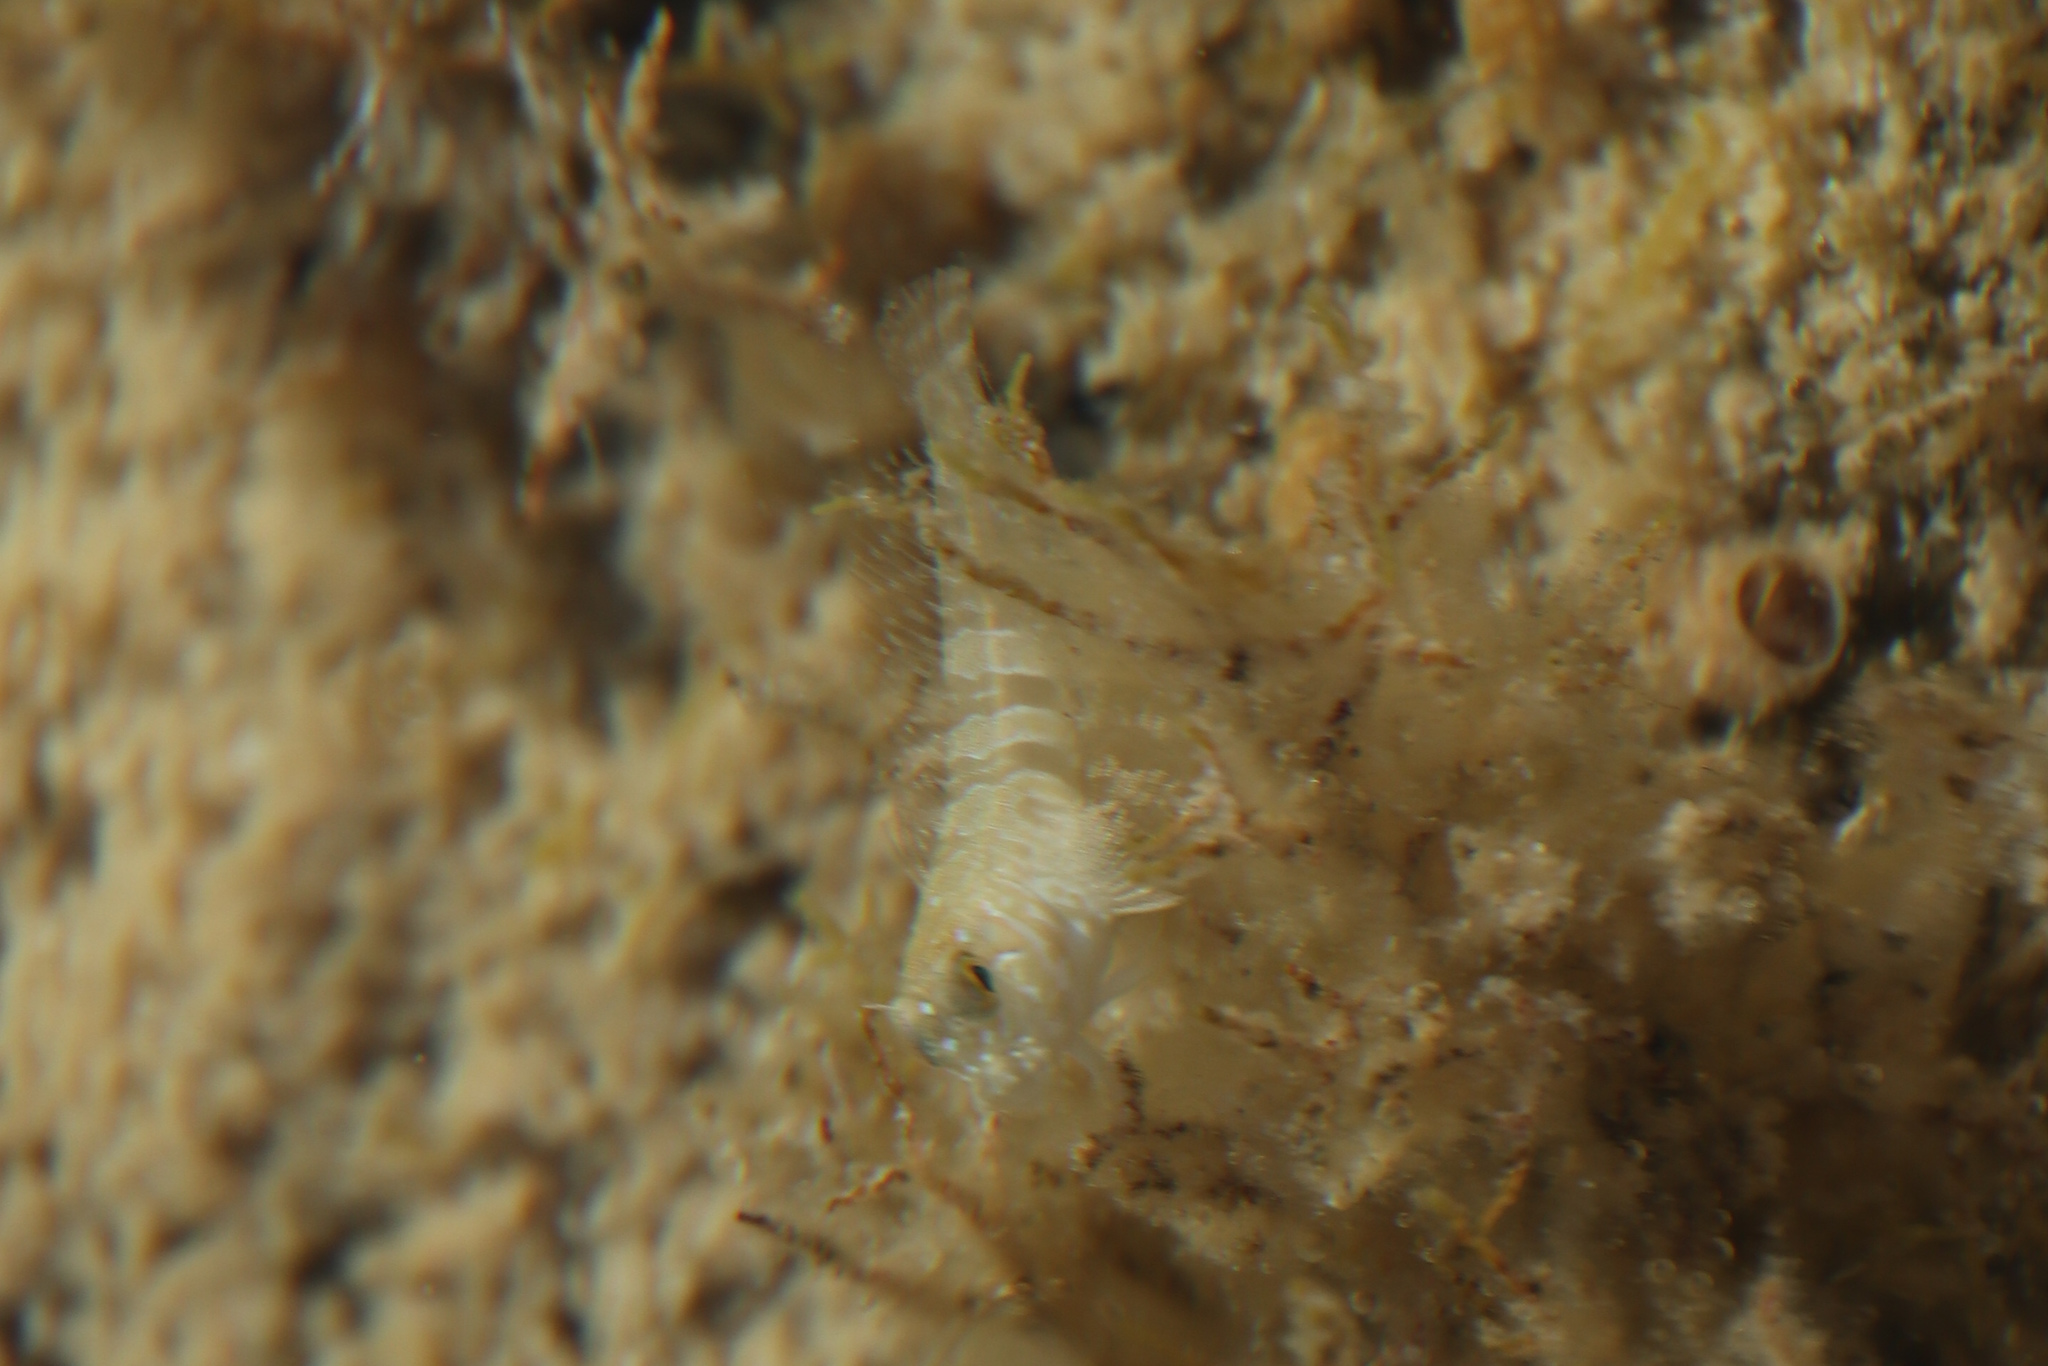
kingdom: Animalia
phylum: Chordata
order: Perciformes
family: Blenniidae
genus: Aidablennius
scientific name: Aidablennius sphynx
